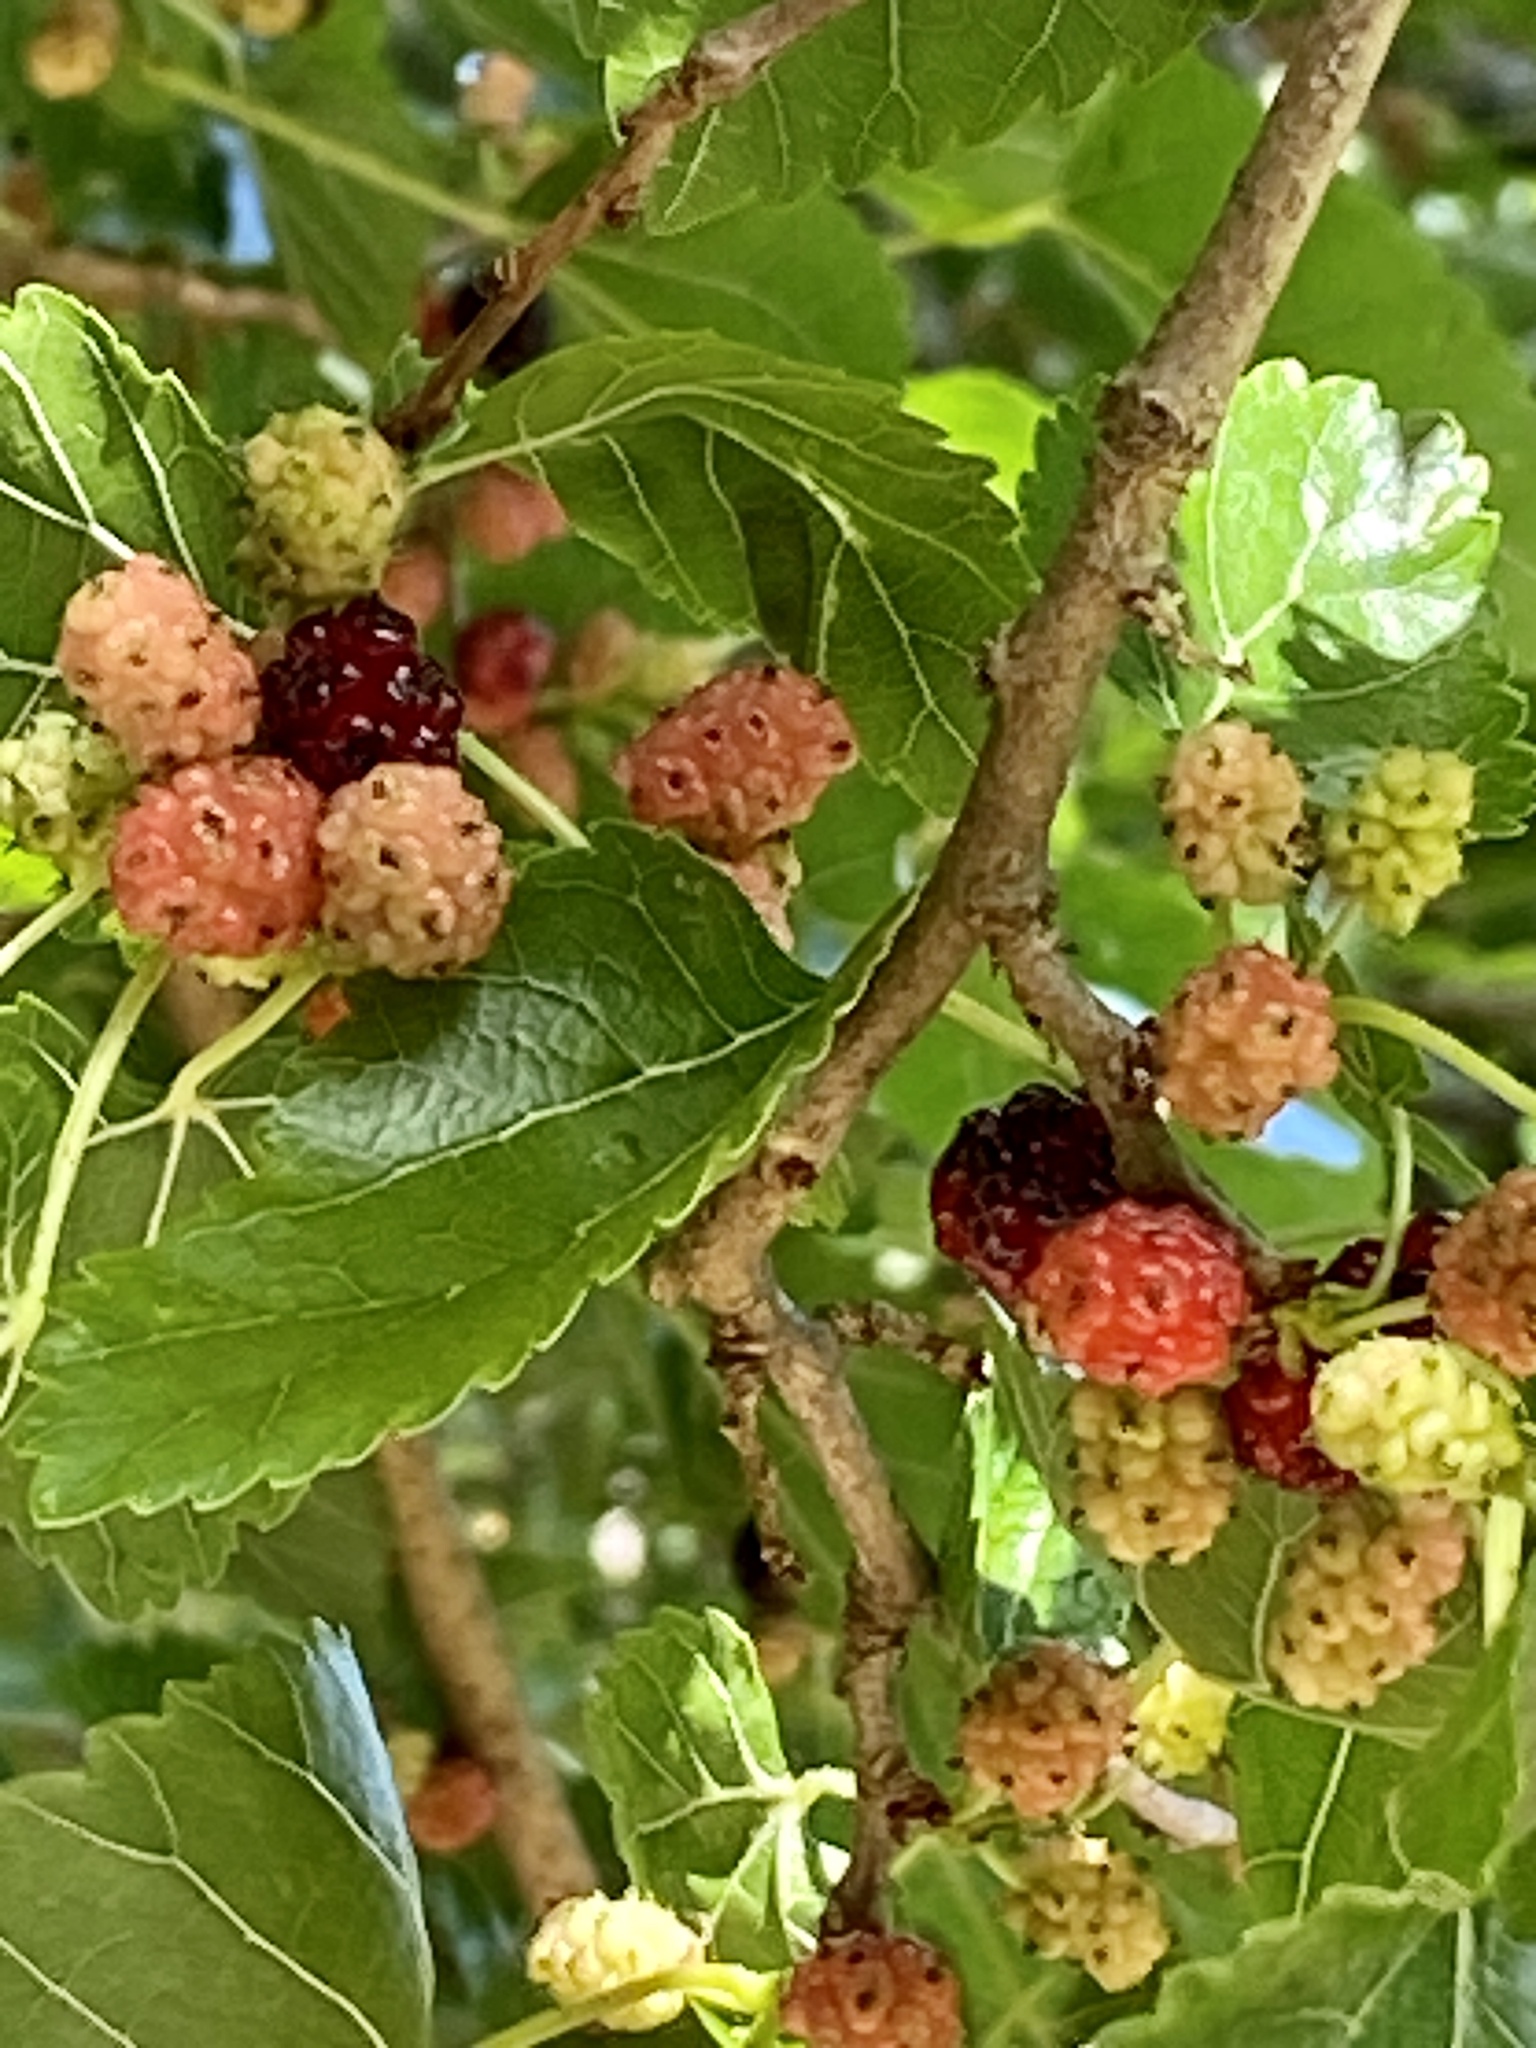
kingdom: Plantae
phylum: Tracheophyta
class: Magnoliopsida
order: Rosales
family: Moraceae
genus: Morus
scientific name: Morus alba
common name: White mulberry
